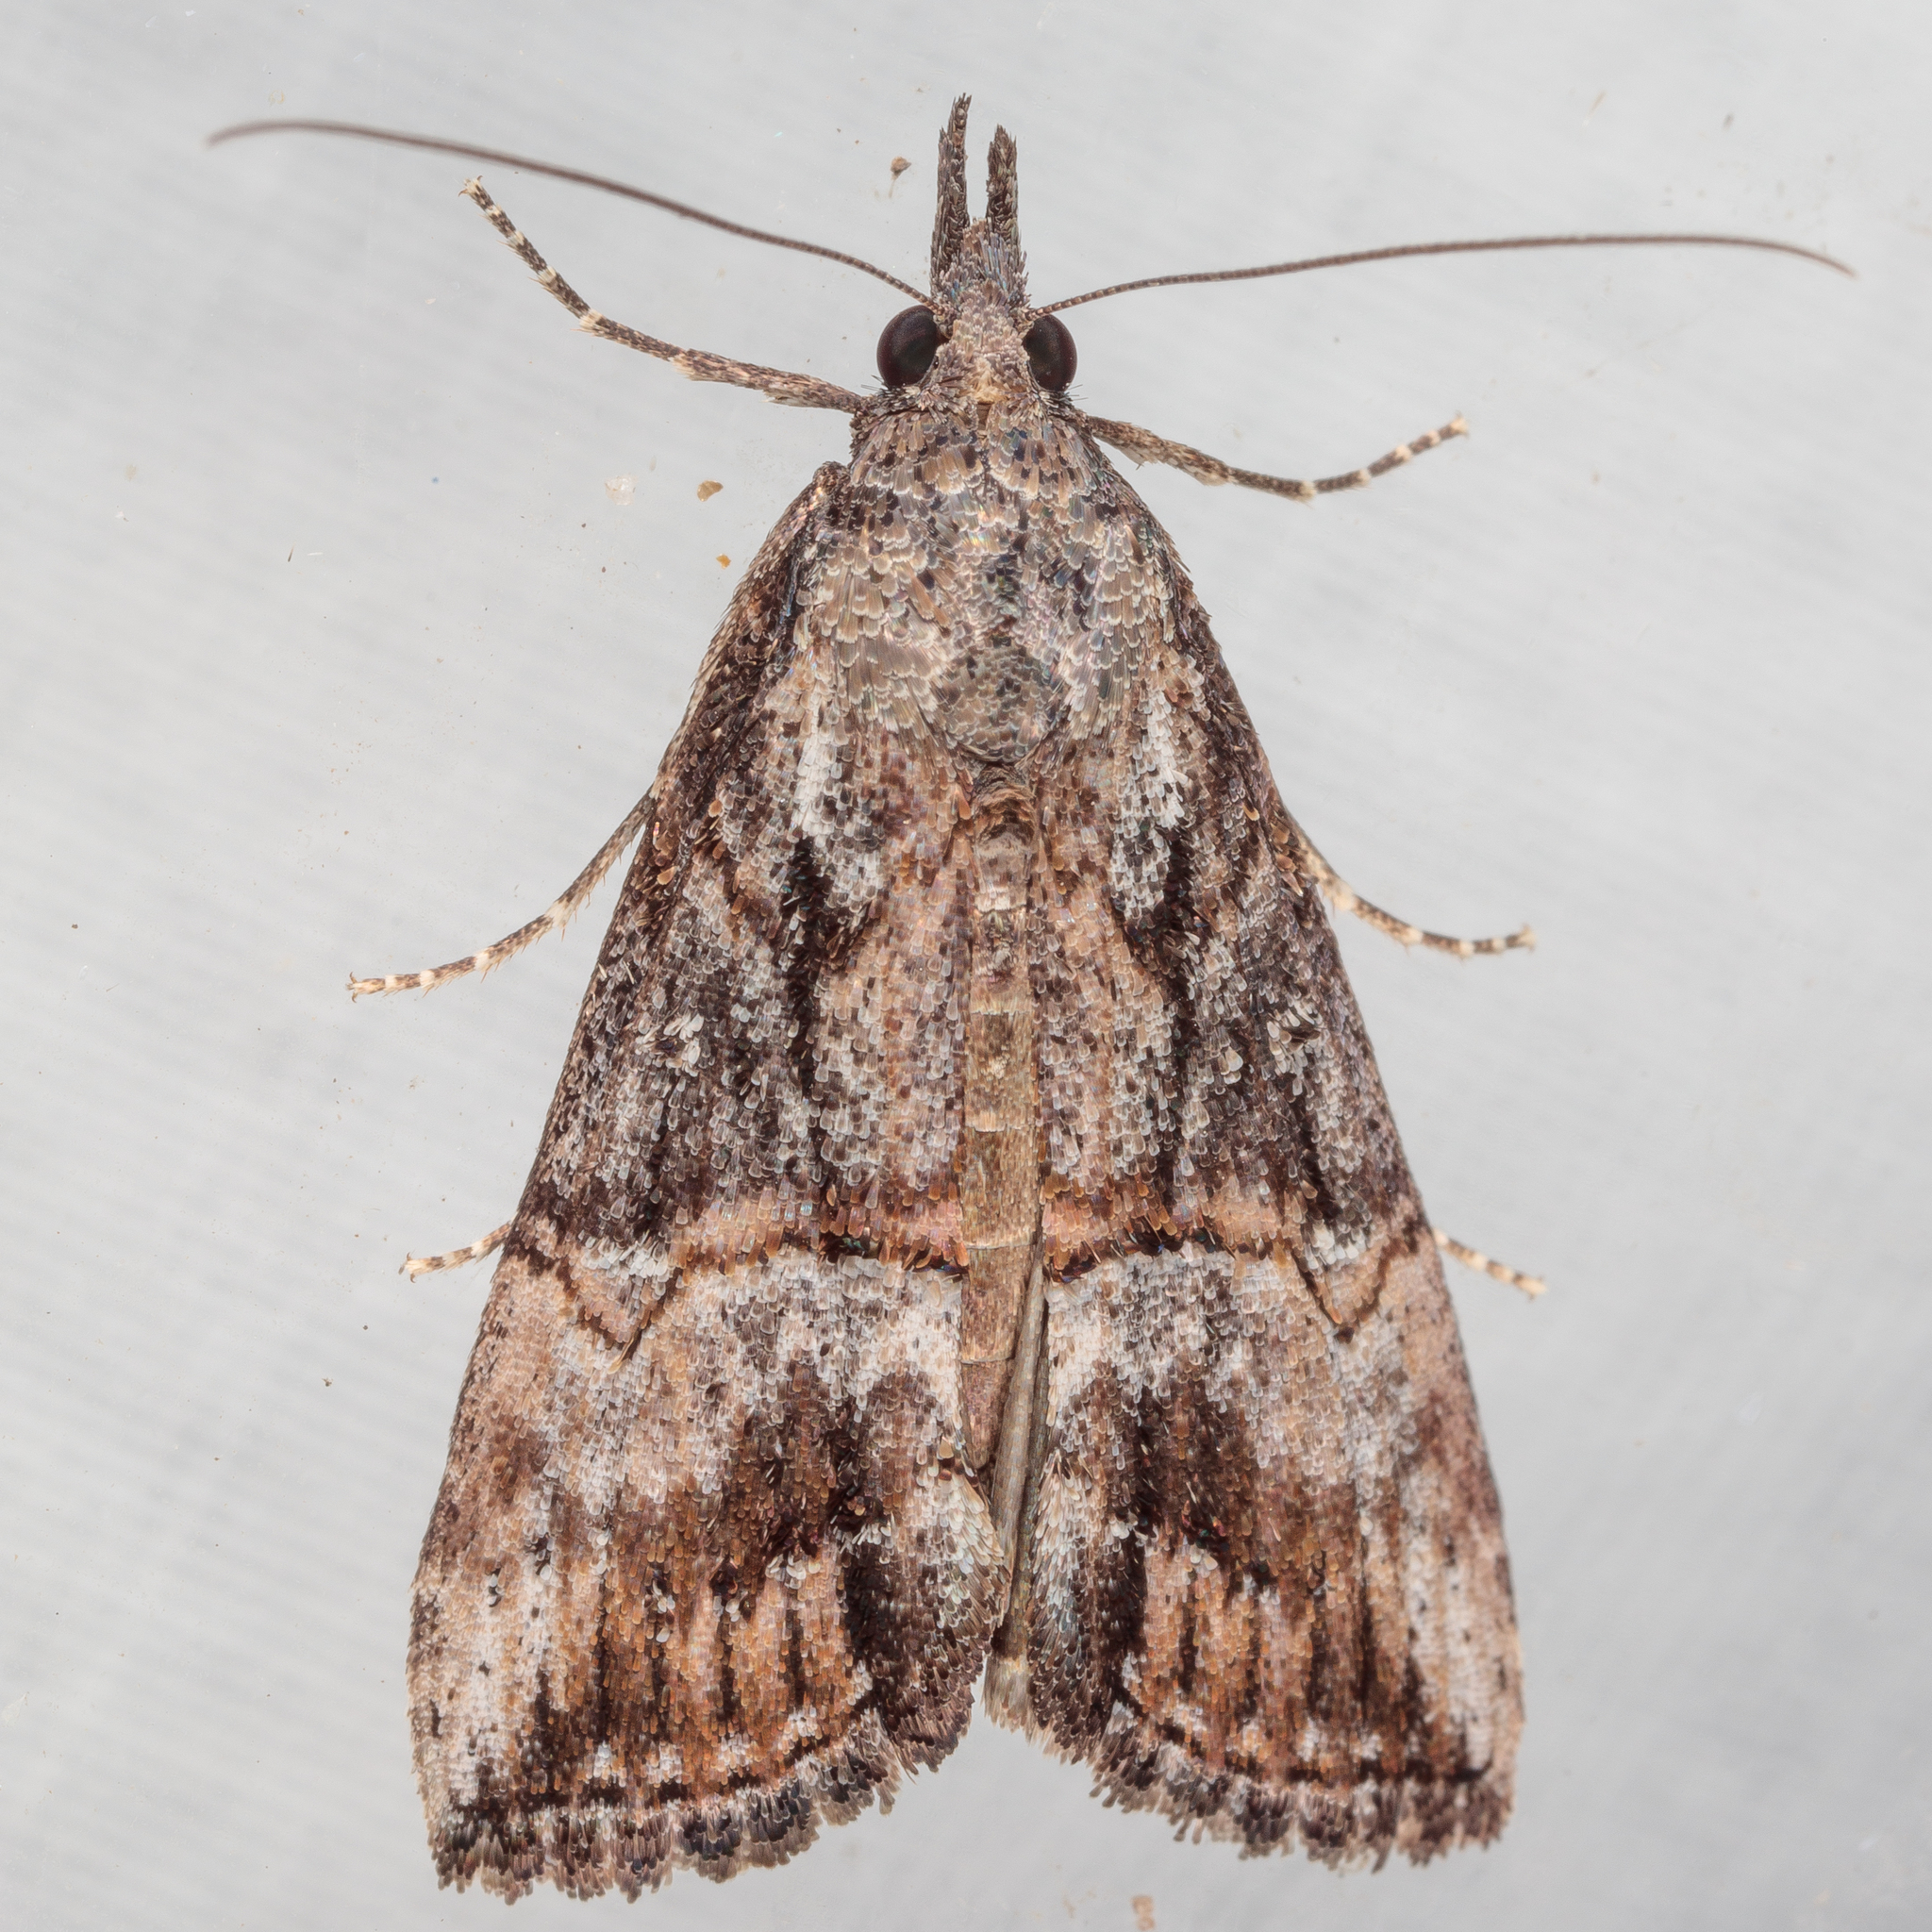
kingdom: Animalia
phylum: Arthropoda
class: Insecta
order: Lepidoptera
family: Erebidae
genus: Hypena
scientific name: Hypena scabra
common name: Green cloverworm
